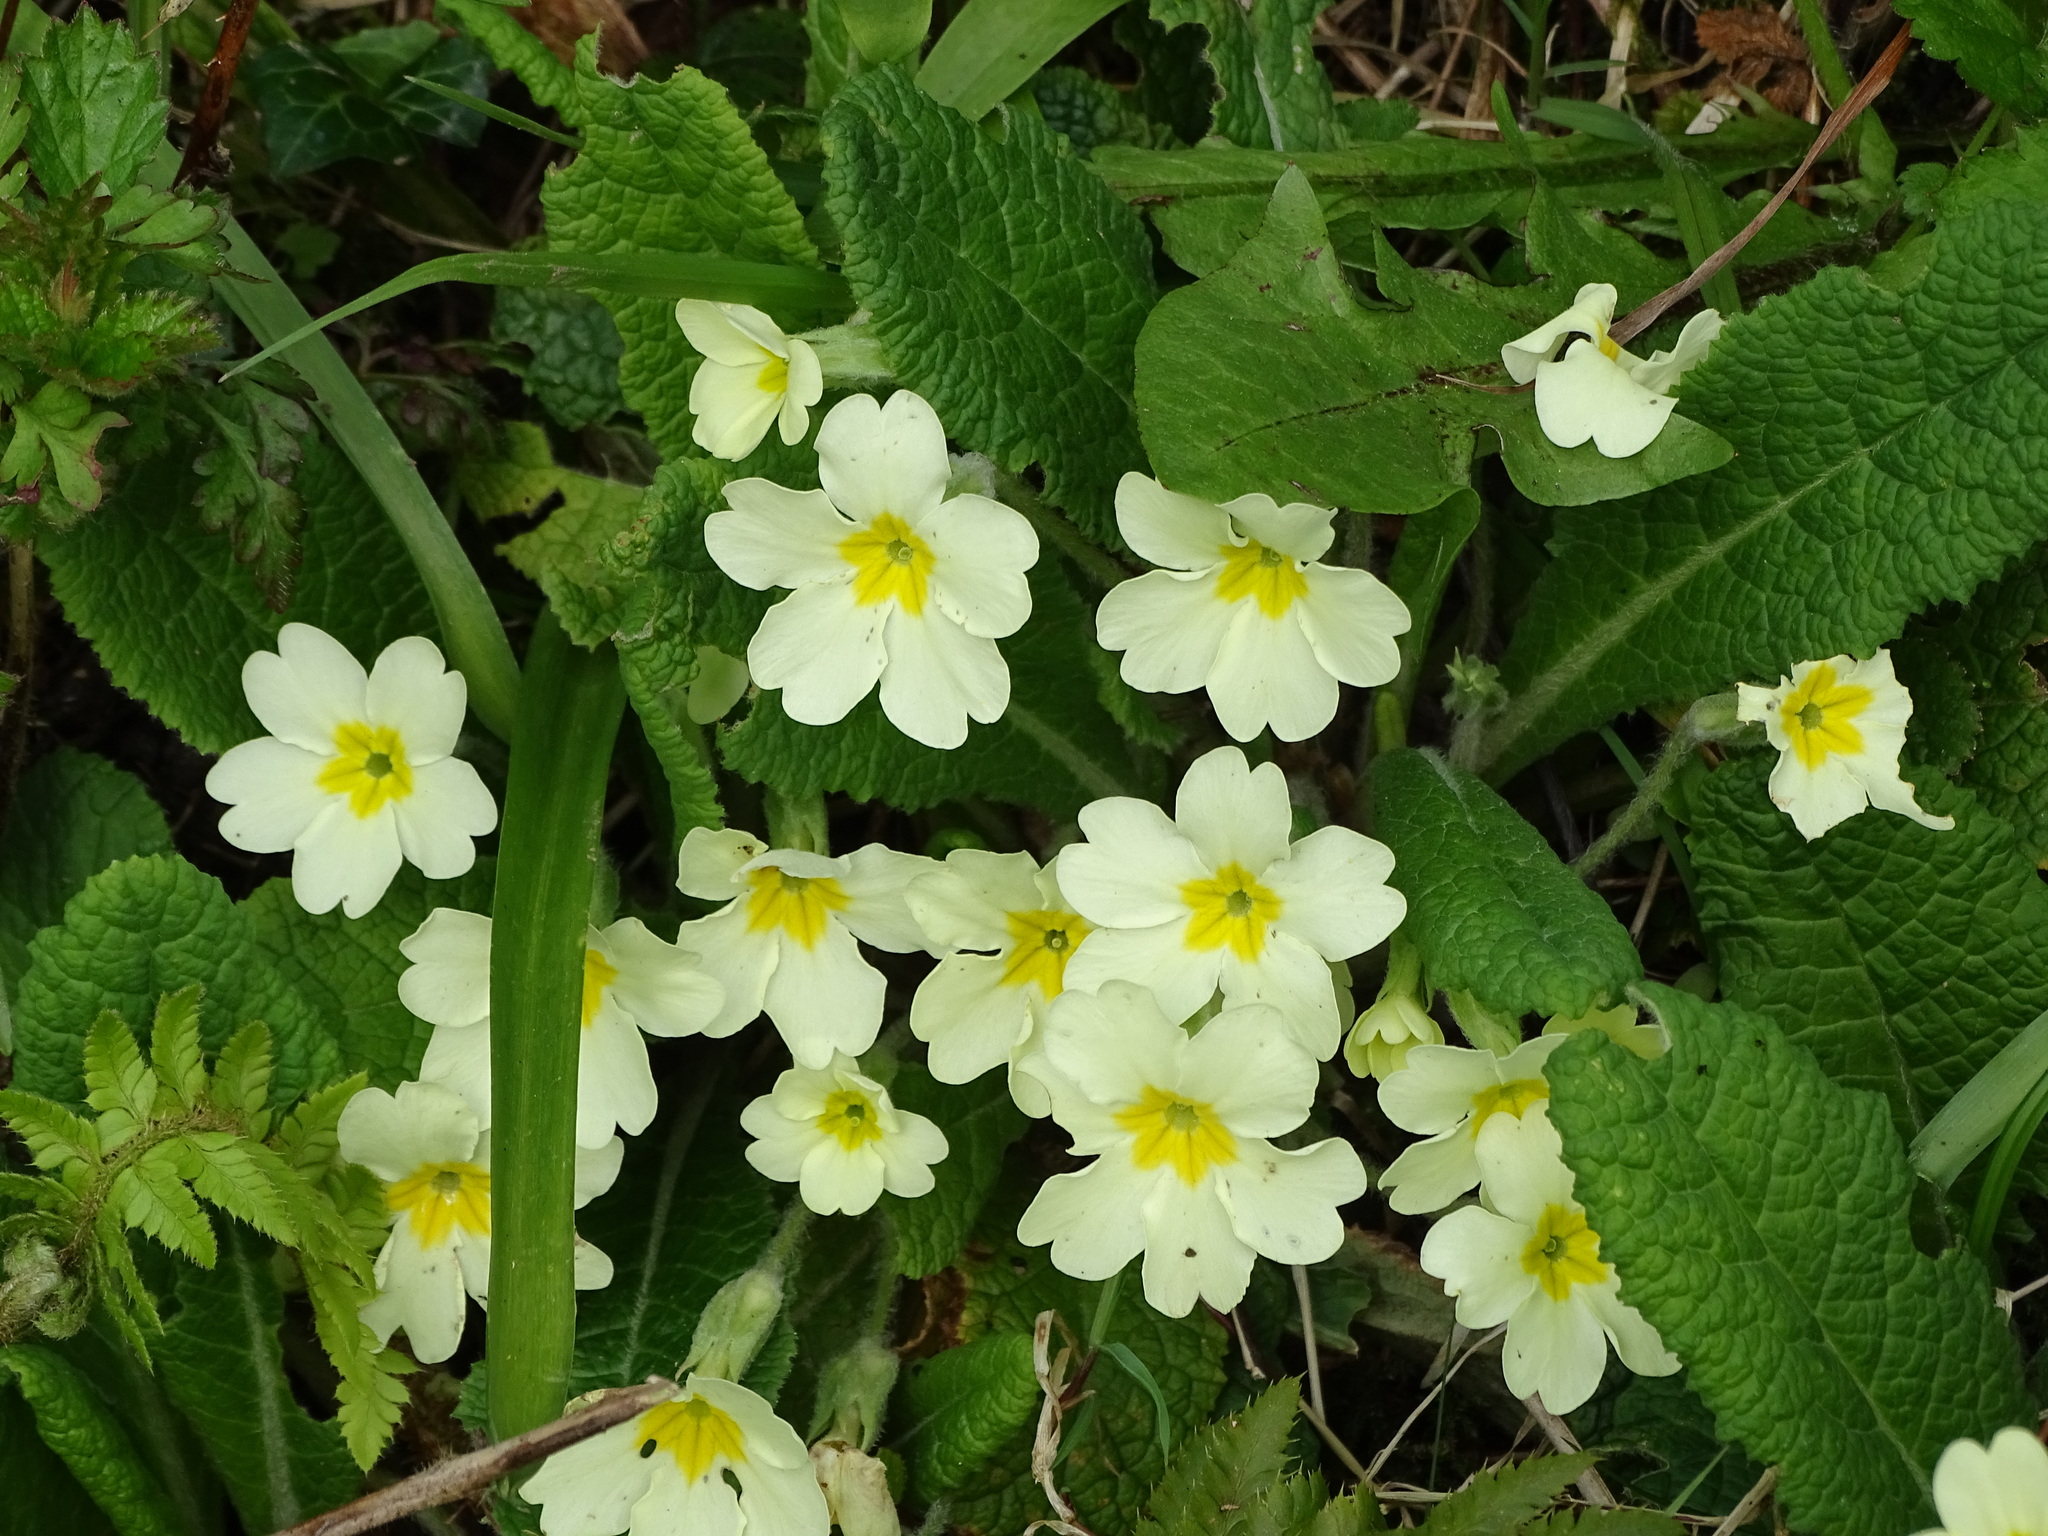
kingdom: Plantae
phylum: Tracheophyta
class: Magnoliopsida
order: Ericales
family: Primulaceae
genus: Primula
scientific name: Primula vulgaris
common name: Primrose
